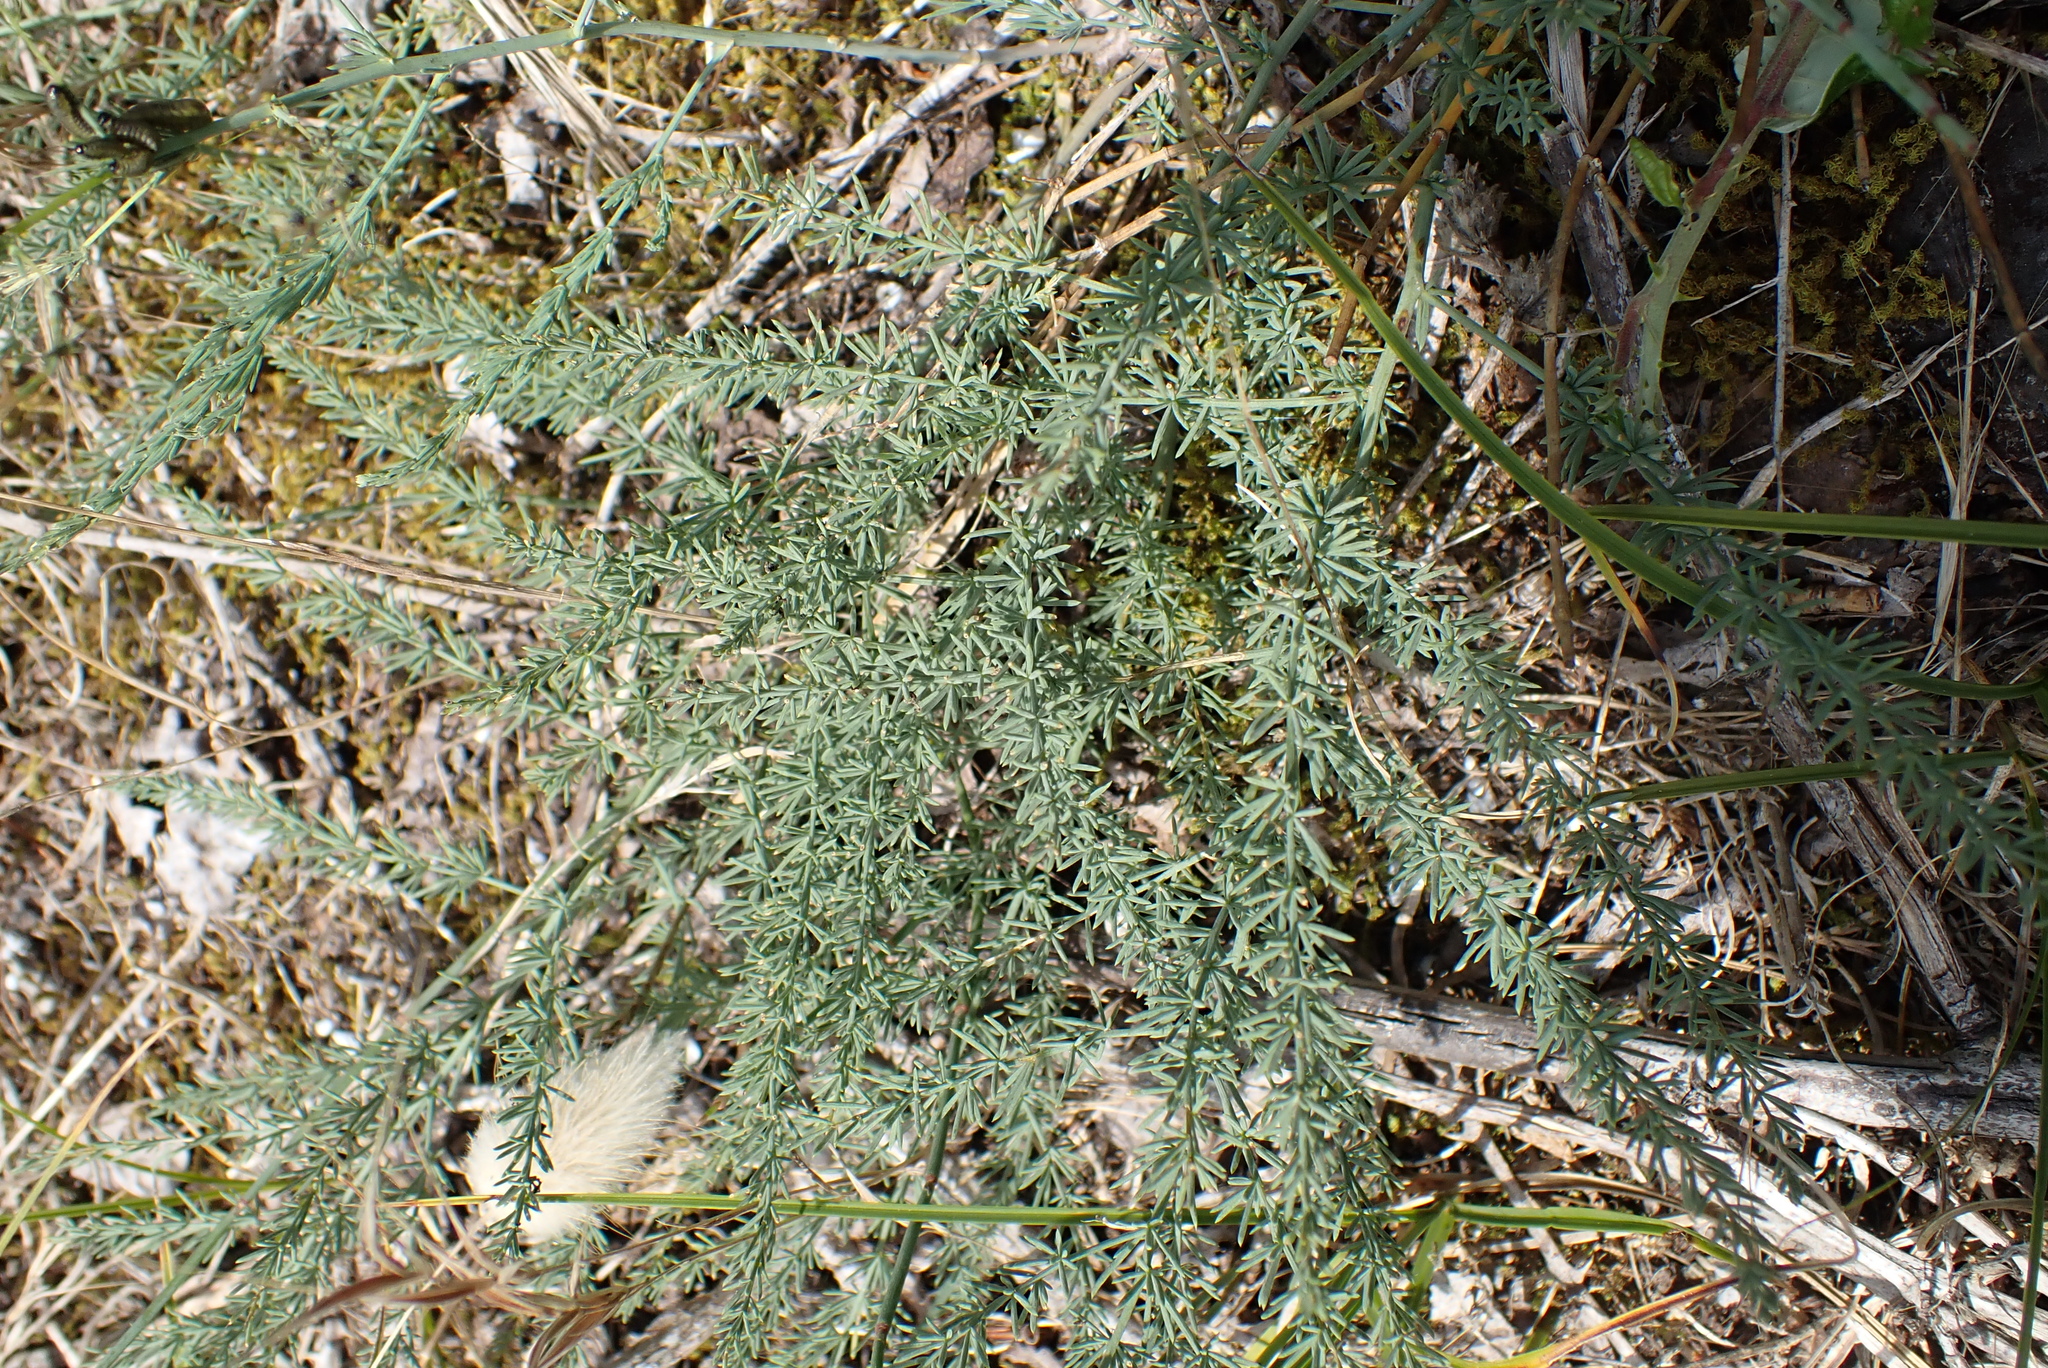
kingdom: Plantae
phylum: Tracheophyta
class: Liliopsida
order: Asparagales
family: Asparagaceae
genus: Asparagus
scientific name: Asparagus prostratus
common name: Wild asparagus
